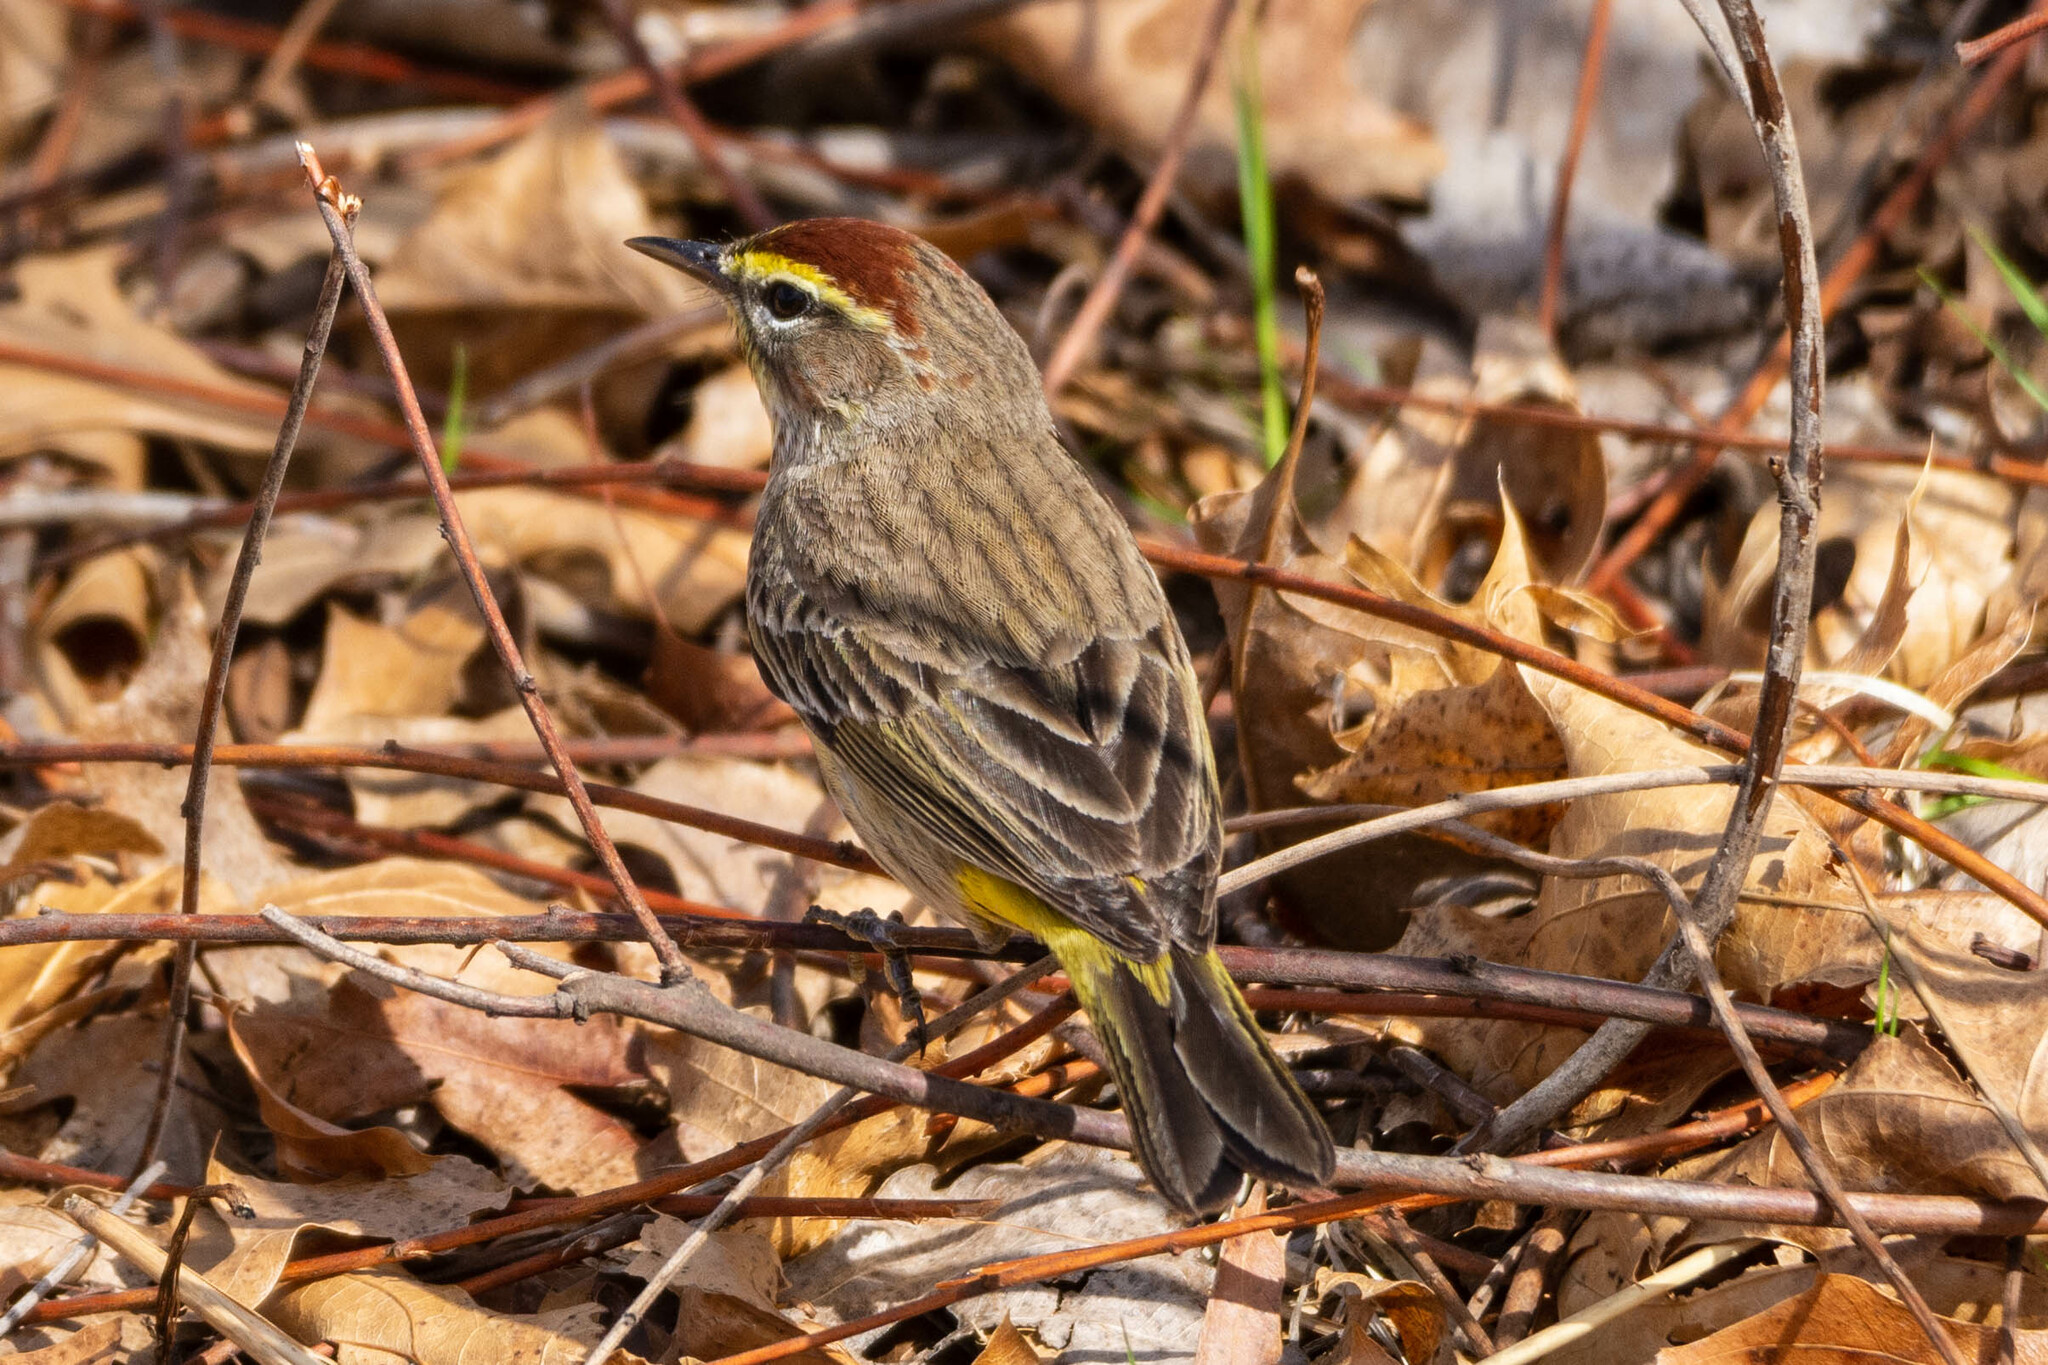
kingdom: Animalia
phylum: Chordata
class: Aves
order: Passeriformes
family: Parulidae
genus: Setophaga
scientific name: Setophaga palmarum
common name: Palm warbler
